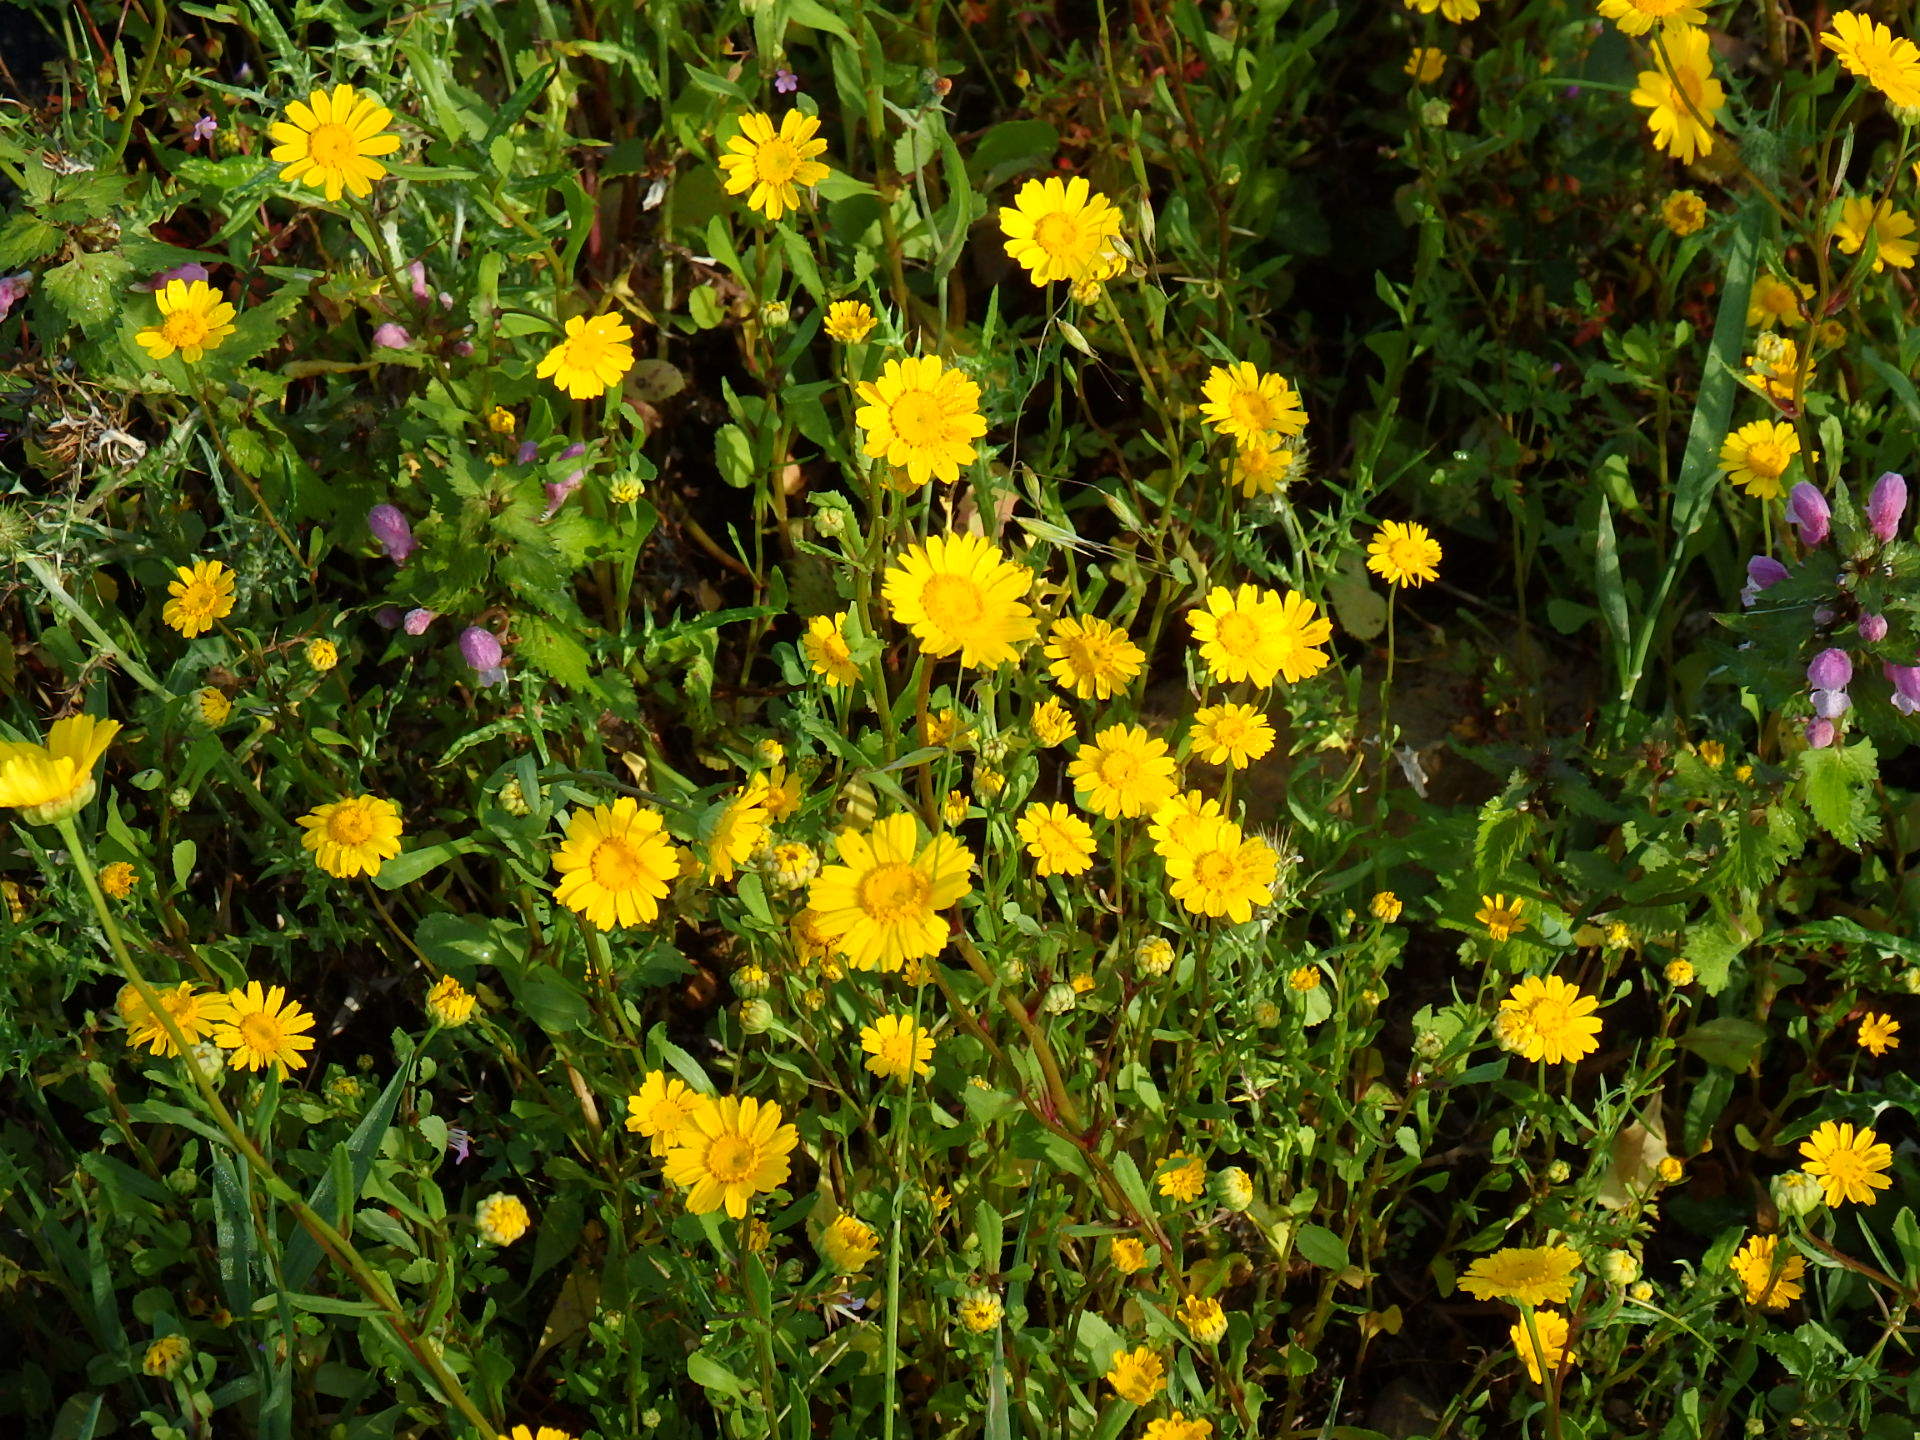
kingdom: Plantae
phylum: Tracheophyta
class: Magnoliopsida
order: Asterales
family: Asteraceae
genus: Coleostephus
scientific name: Coleostephus myconis
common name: Mediterranean marigold
